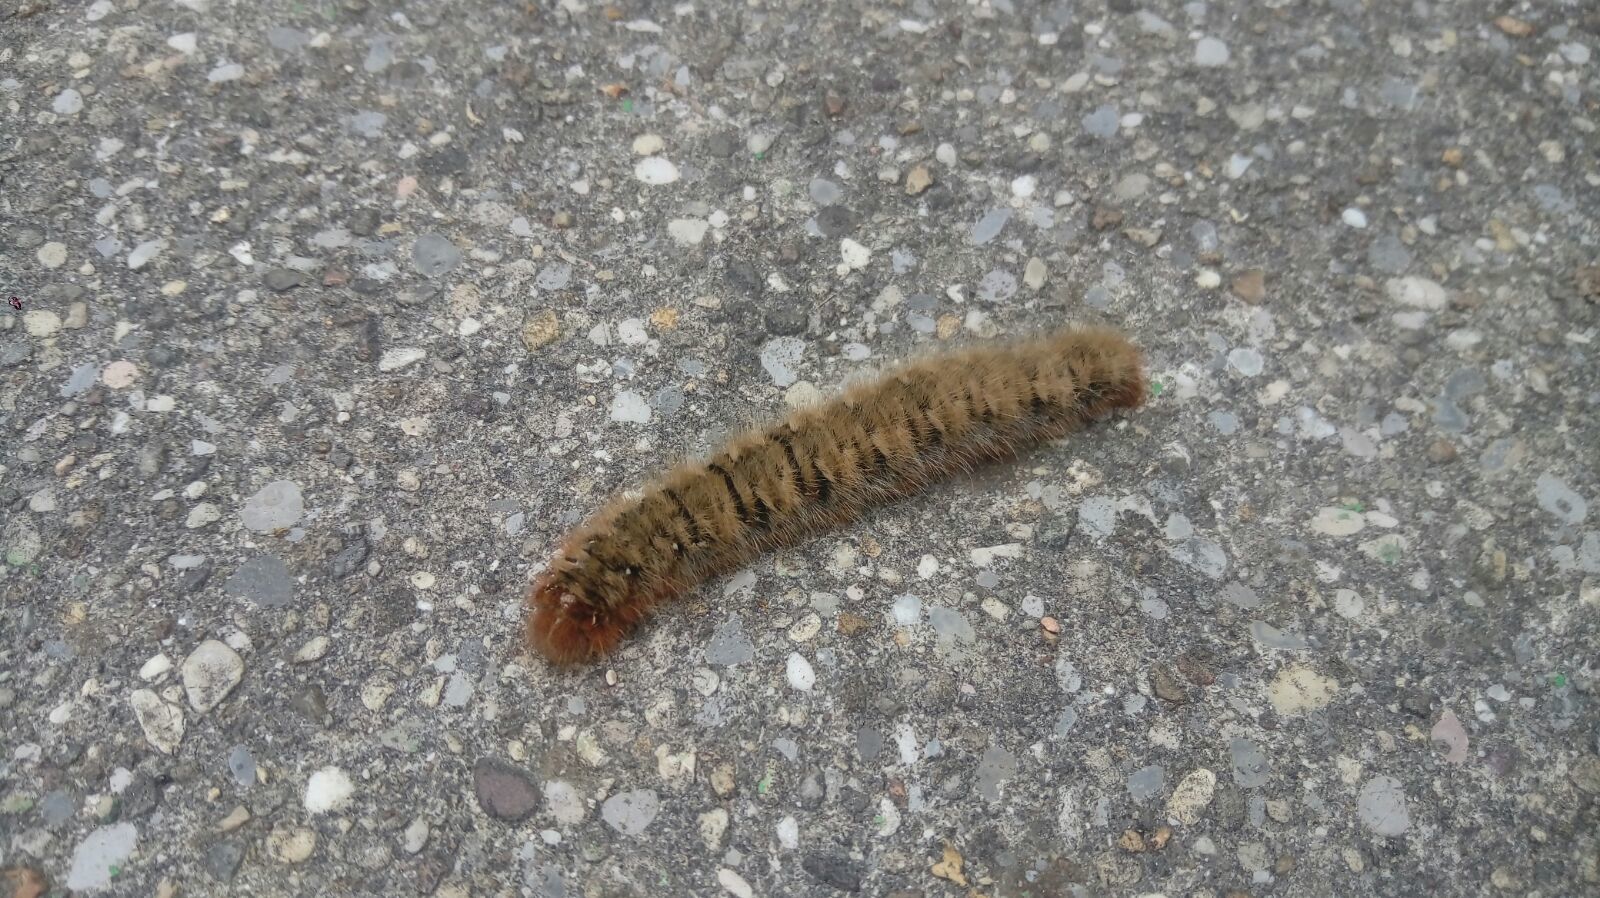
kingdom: Animalia
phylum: Arthropoda
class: Insecta
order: Lepidoptera
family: Lasiocampidae
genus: Lasiocampa
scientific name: Lasiocampa quercus
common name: Oak eggar
